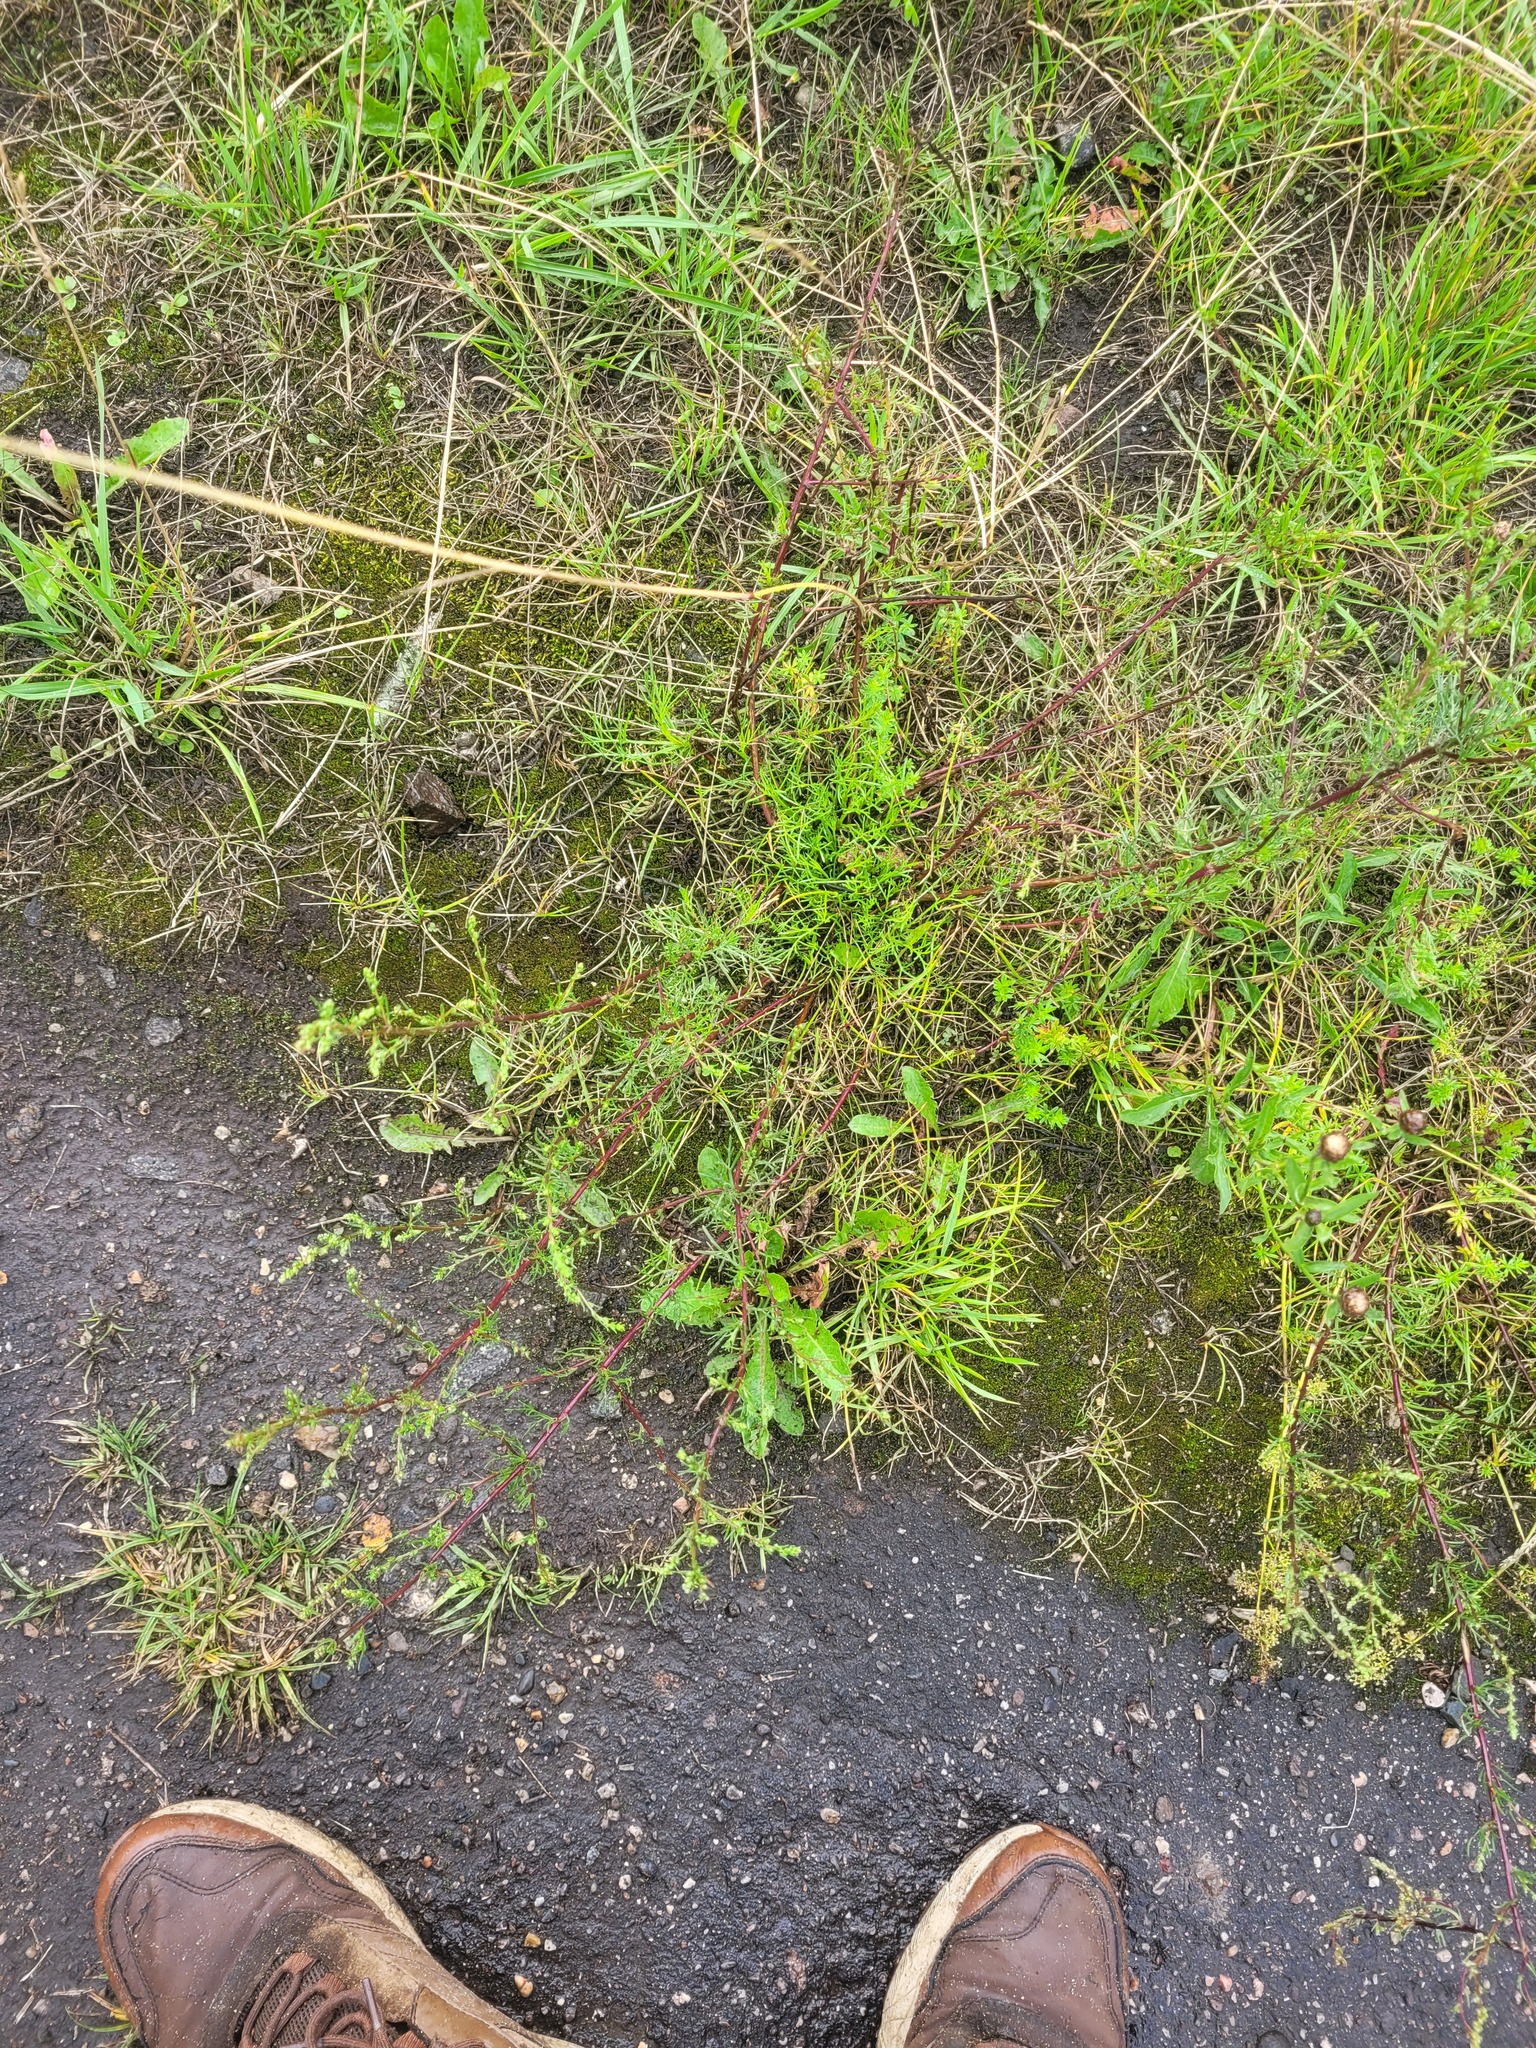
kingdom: Plantae
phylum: Tracheophyta
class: Magnoliopsida
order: Asterales
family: Asteraceae
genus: Artemisia
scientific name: Artemisia campestris
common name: Field wormwood
